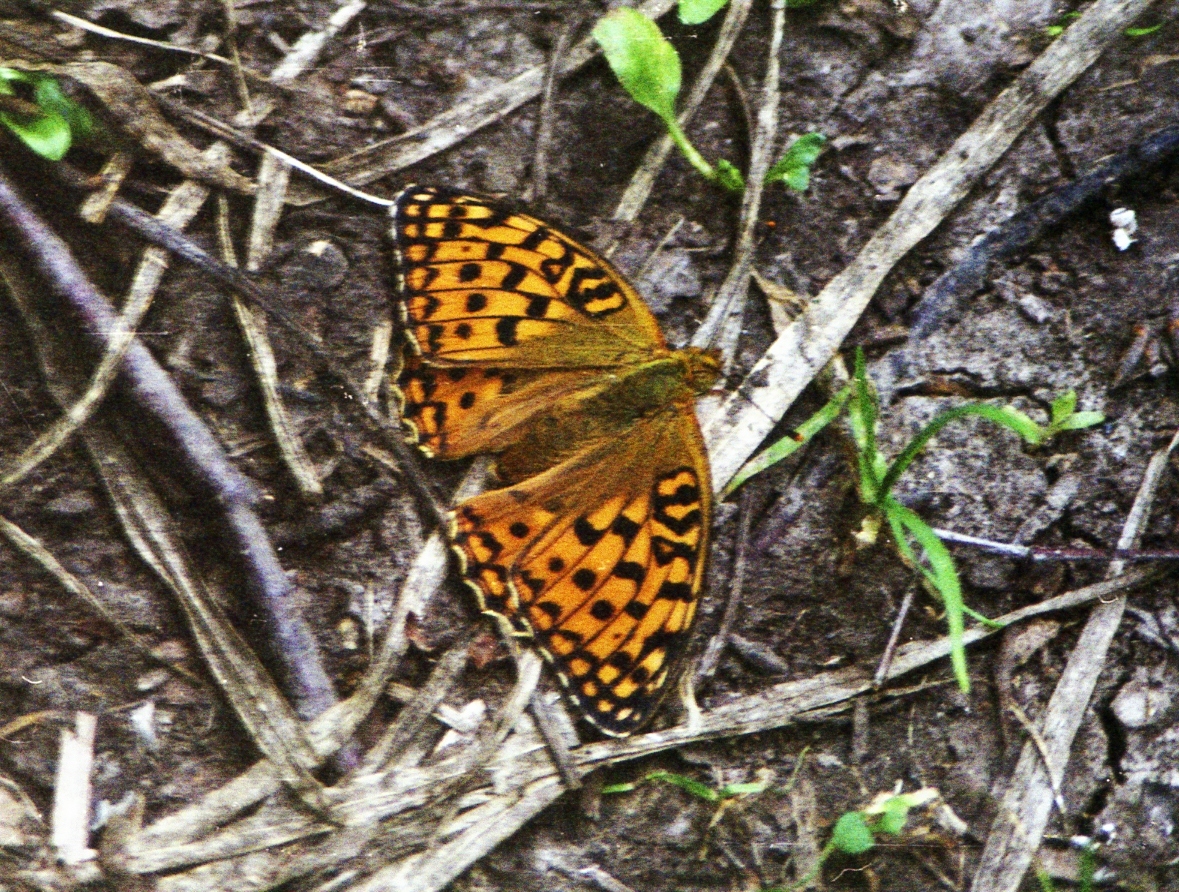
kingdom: Animalia
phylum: Arthropoda
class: Insecta
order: Lepidoptera
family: Nymphalidae
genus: Fabriciana
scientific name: Fabriciana adippe
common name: High brown fritillary
